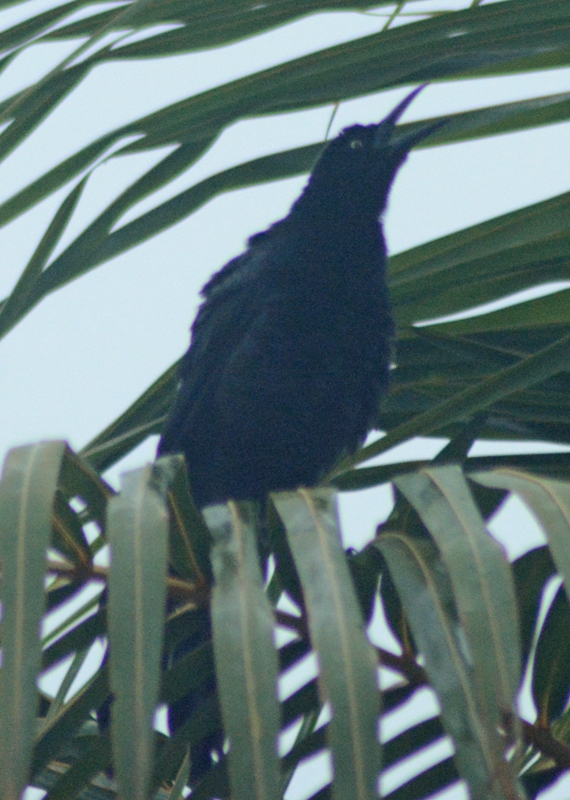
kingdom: Animalia
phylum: Chordata
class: Aves
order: Passeriformes
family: Icteridae
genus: Quiscalus
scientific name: Quiscalus mexicanus
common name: Great-tailed grackle
